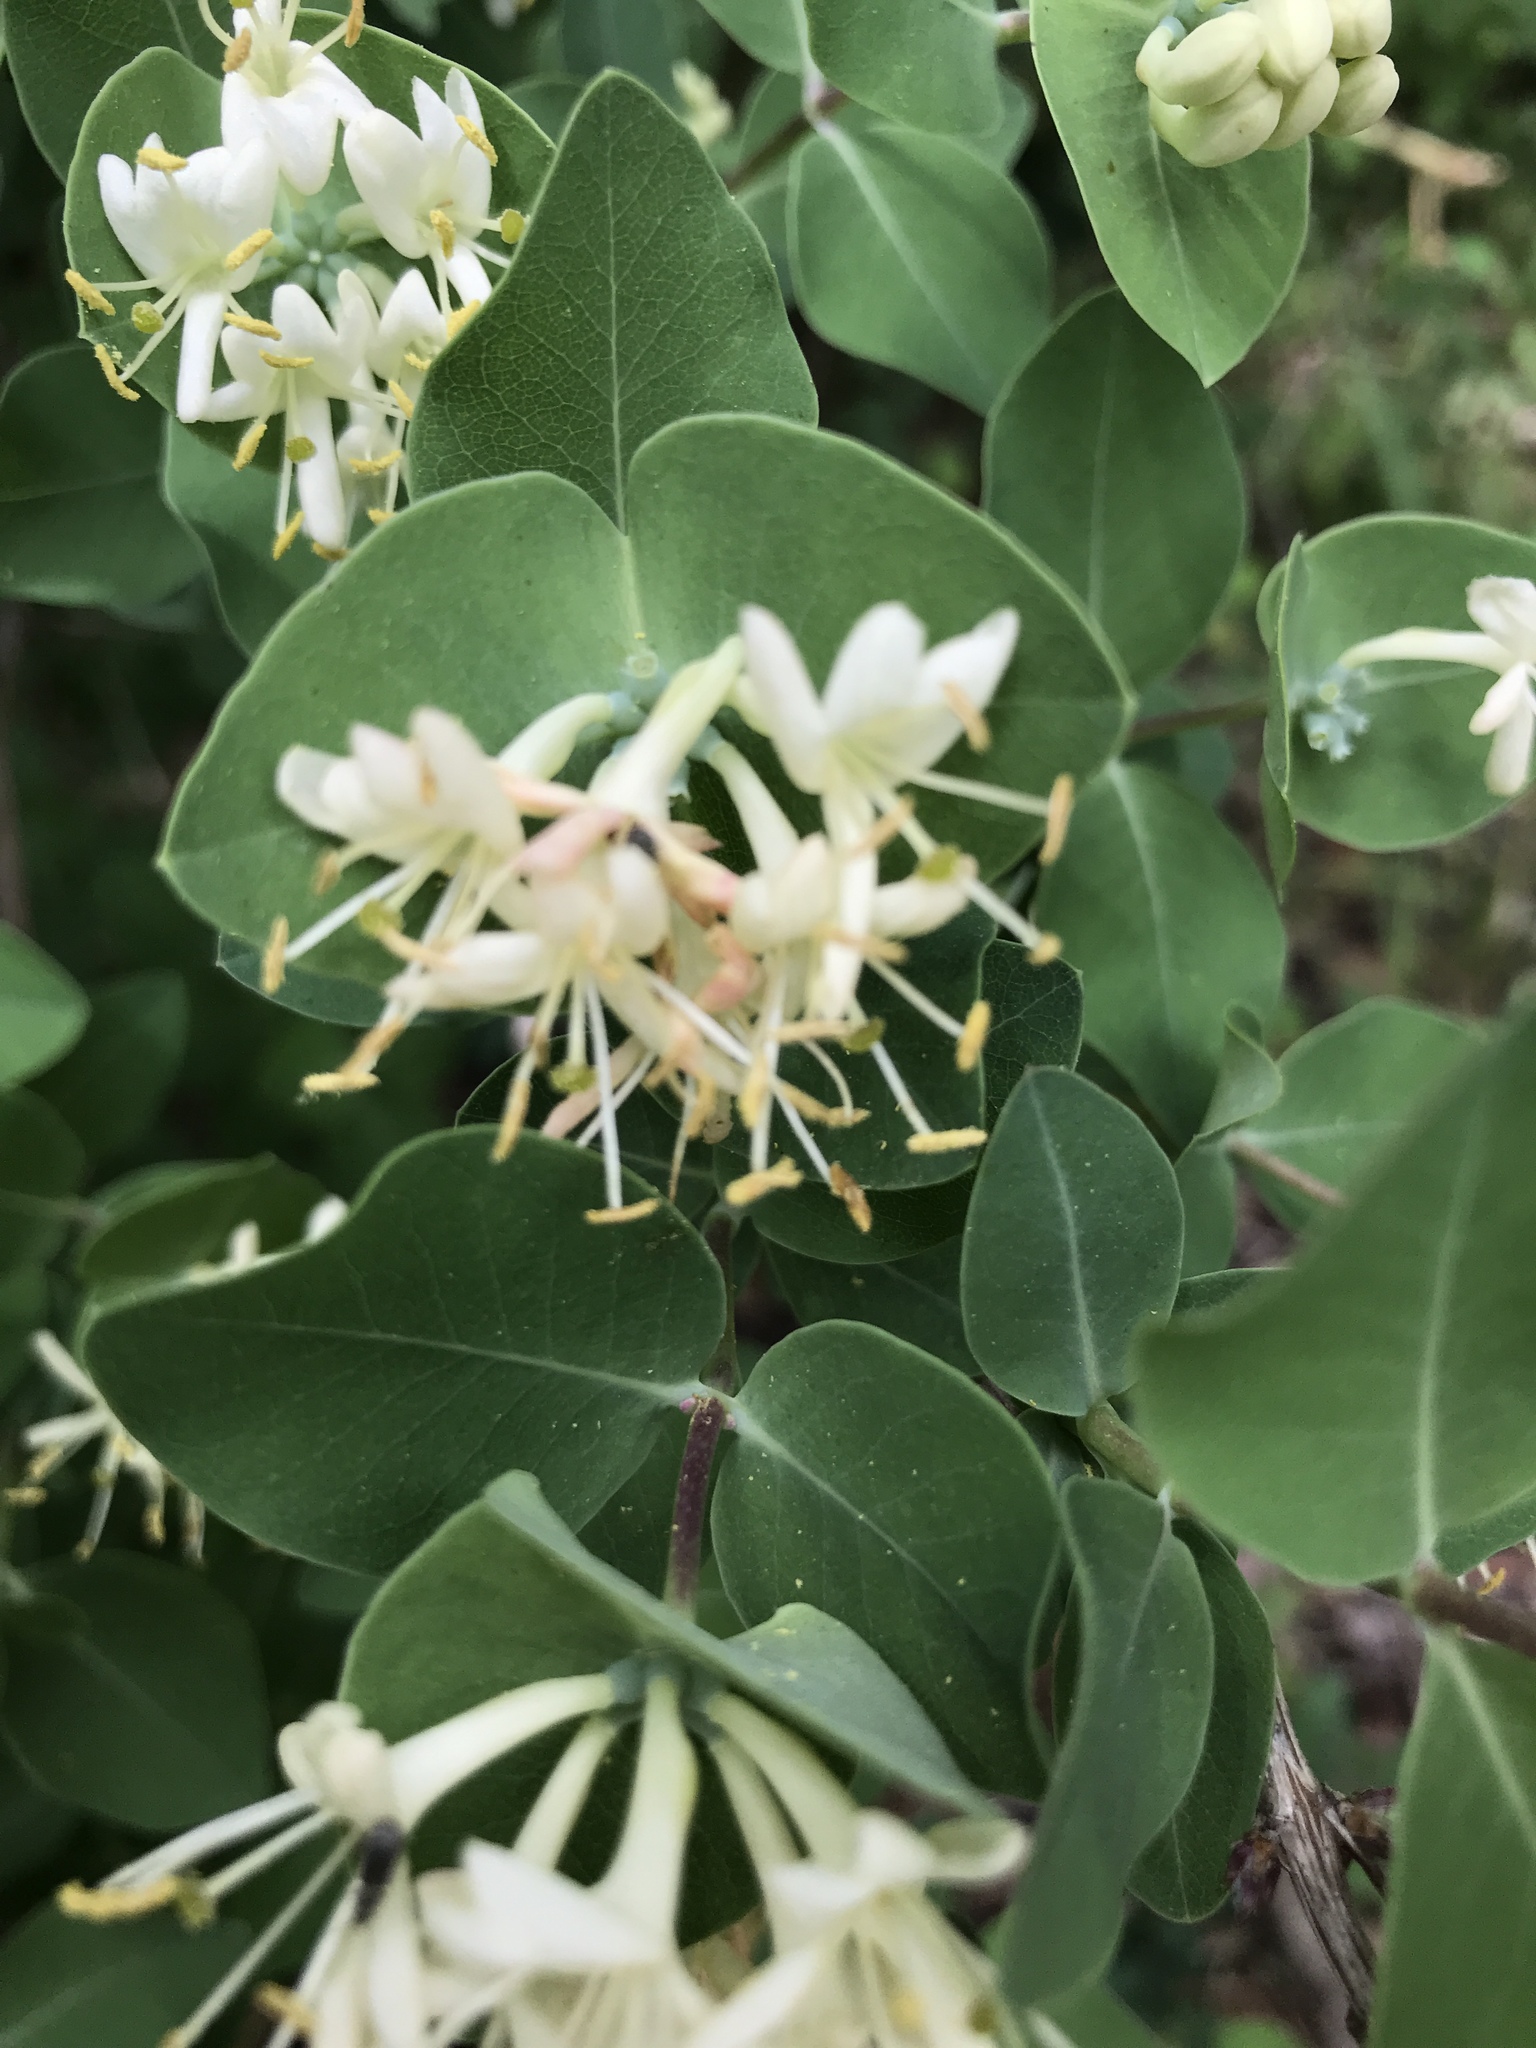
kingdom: Plantae
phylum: Tracheophyta
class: Magnoliopsida
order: Dipsacales
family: Caprifoliaceae
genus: Lonicera
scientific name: Lonicera albiflora
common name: White honeysuckle
